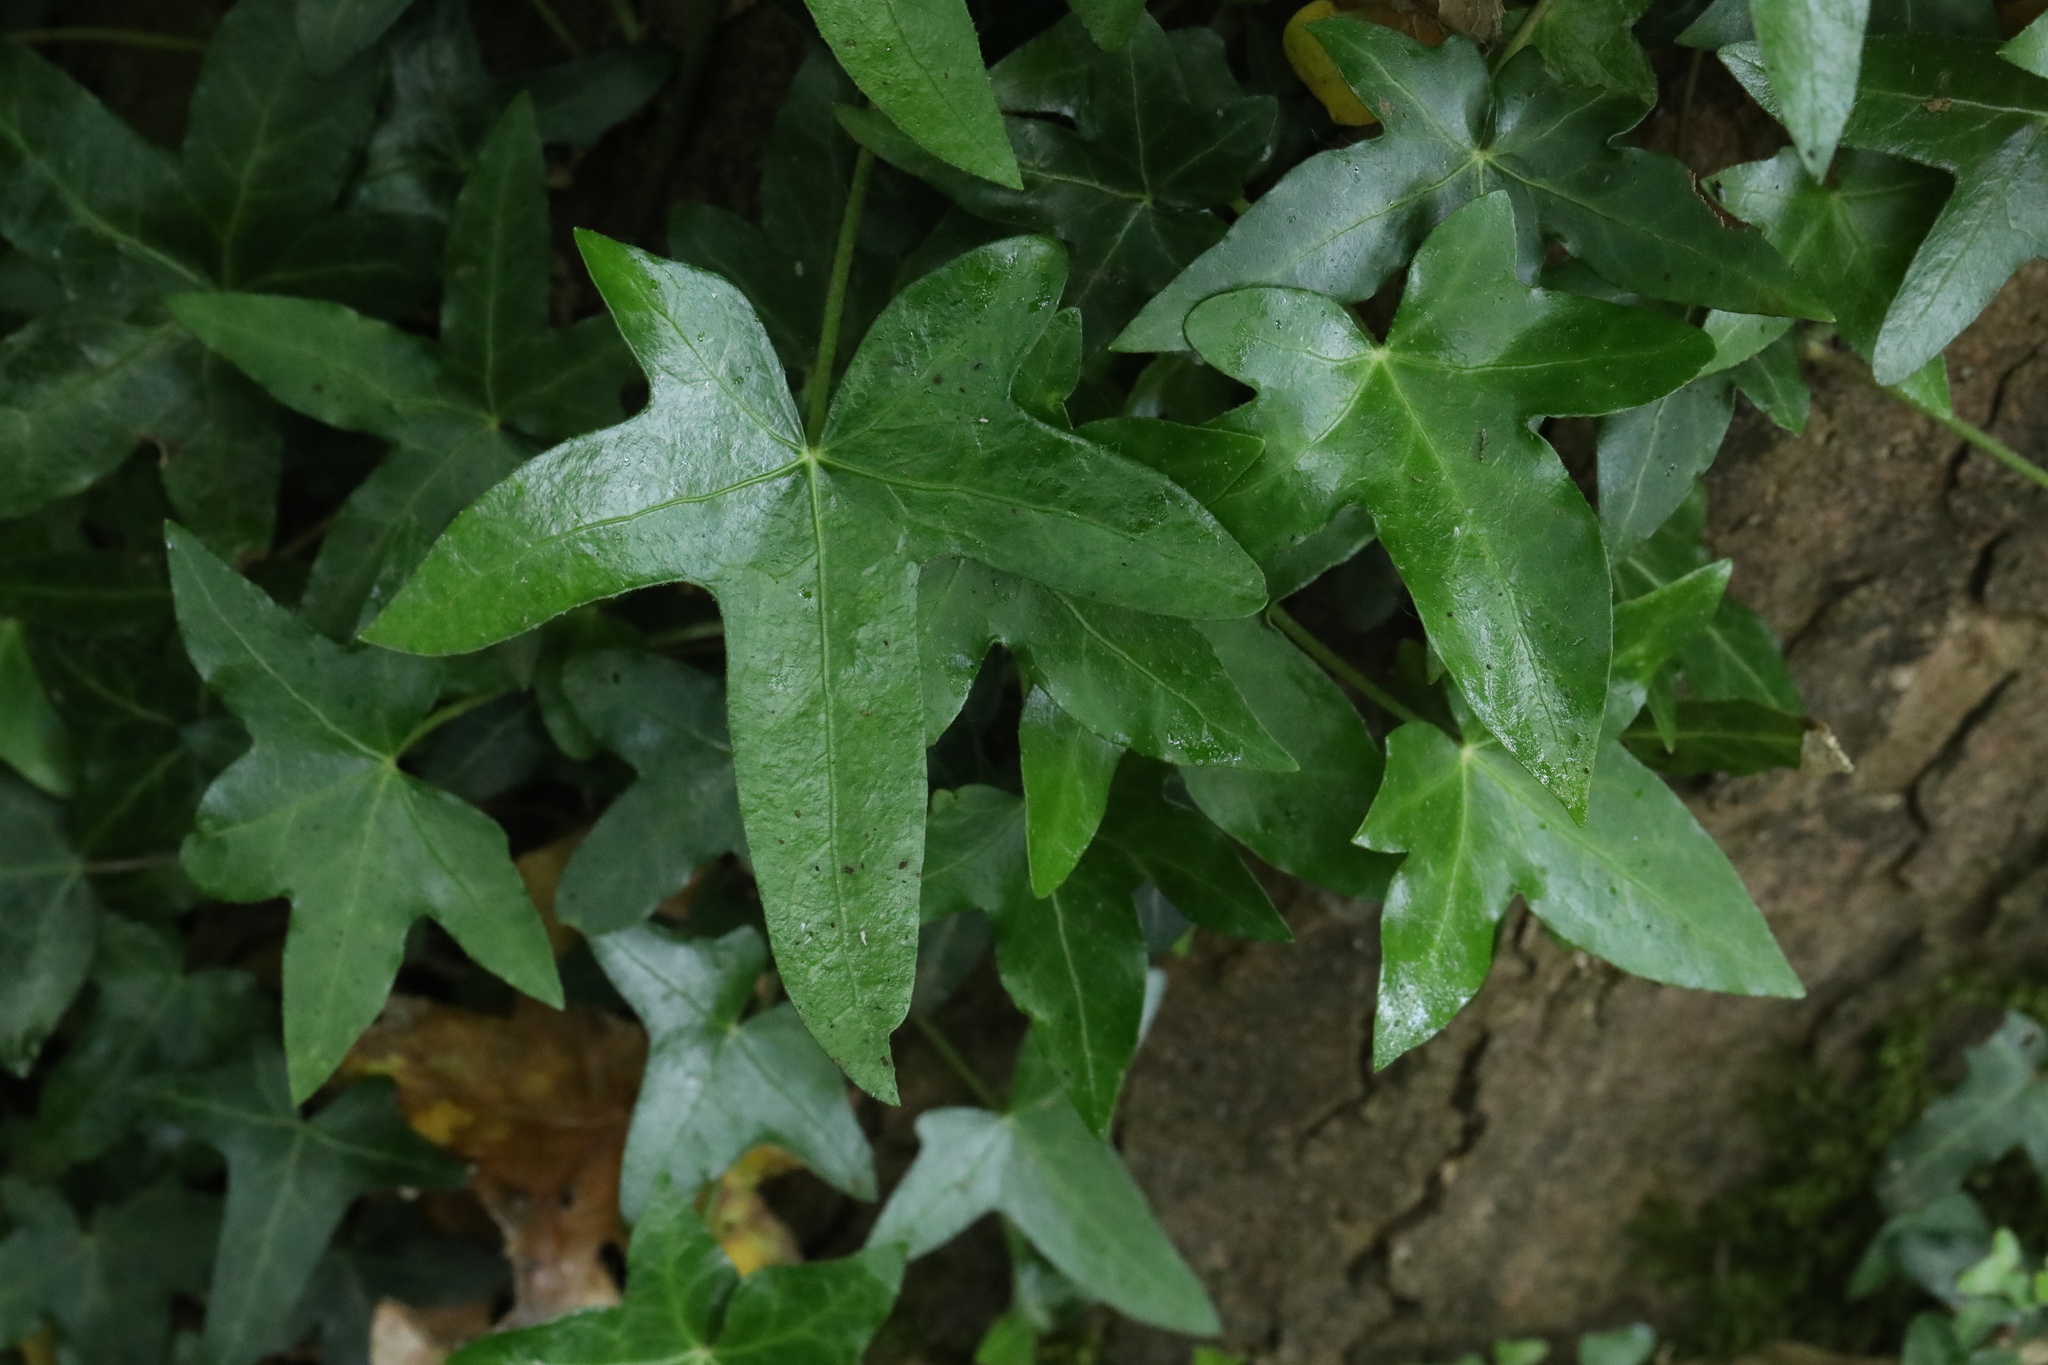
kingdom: Plantae
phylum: Tracheophyta
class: Magnoliopsida
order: Apiales
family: Araliaceae
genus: Hedera
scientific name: Hedera helix
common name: Ivy
